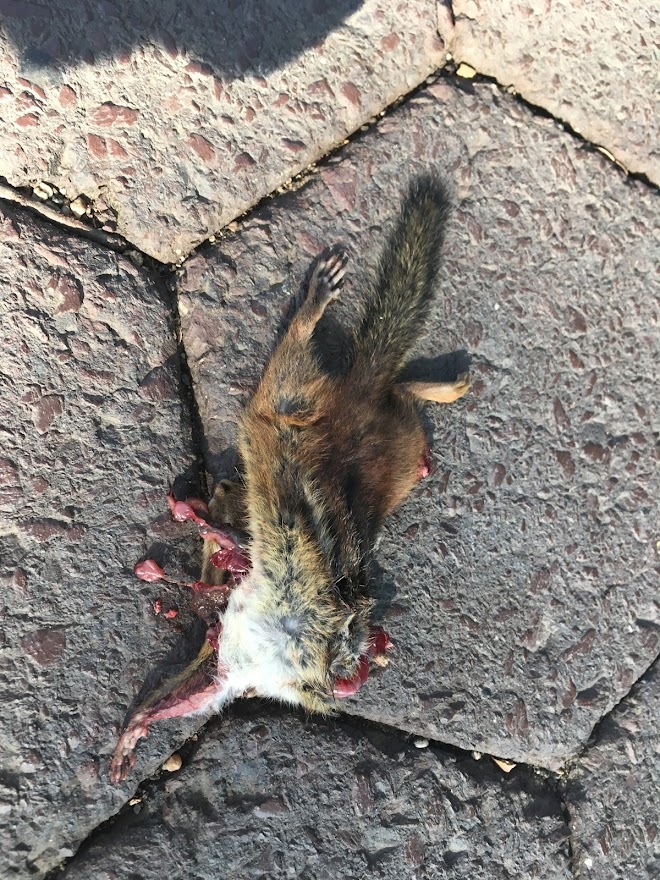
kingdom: Animalia
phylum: Chordata
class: Mammalia
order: Rodentia
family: Sciuridae
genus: Tamias
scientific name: Tamias striatus
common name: Eastern chipmunk
